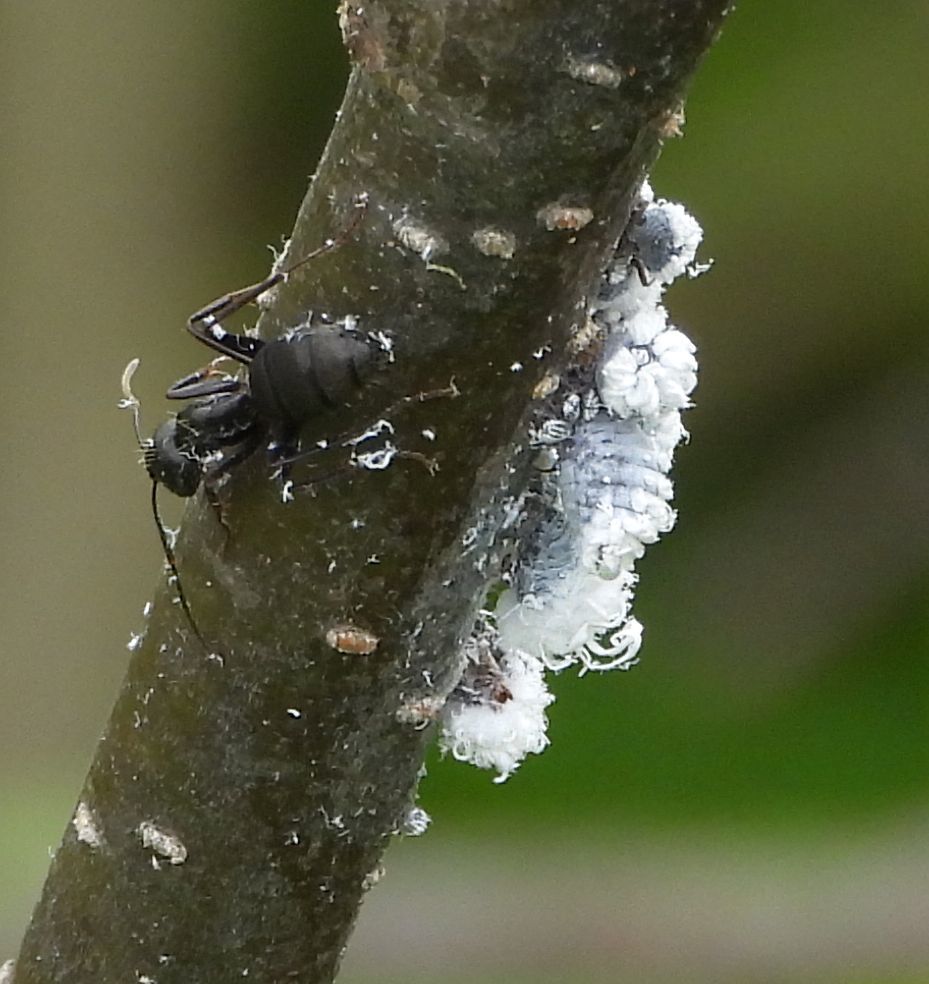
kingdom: Animalia
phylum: Arthropoda
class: Insecta
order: Hemiptera
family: Aphididae
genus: Prociphilus
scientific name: Prociphilus tessellatus
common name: Woolly alder aphid
